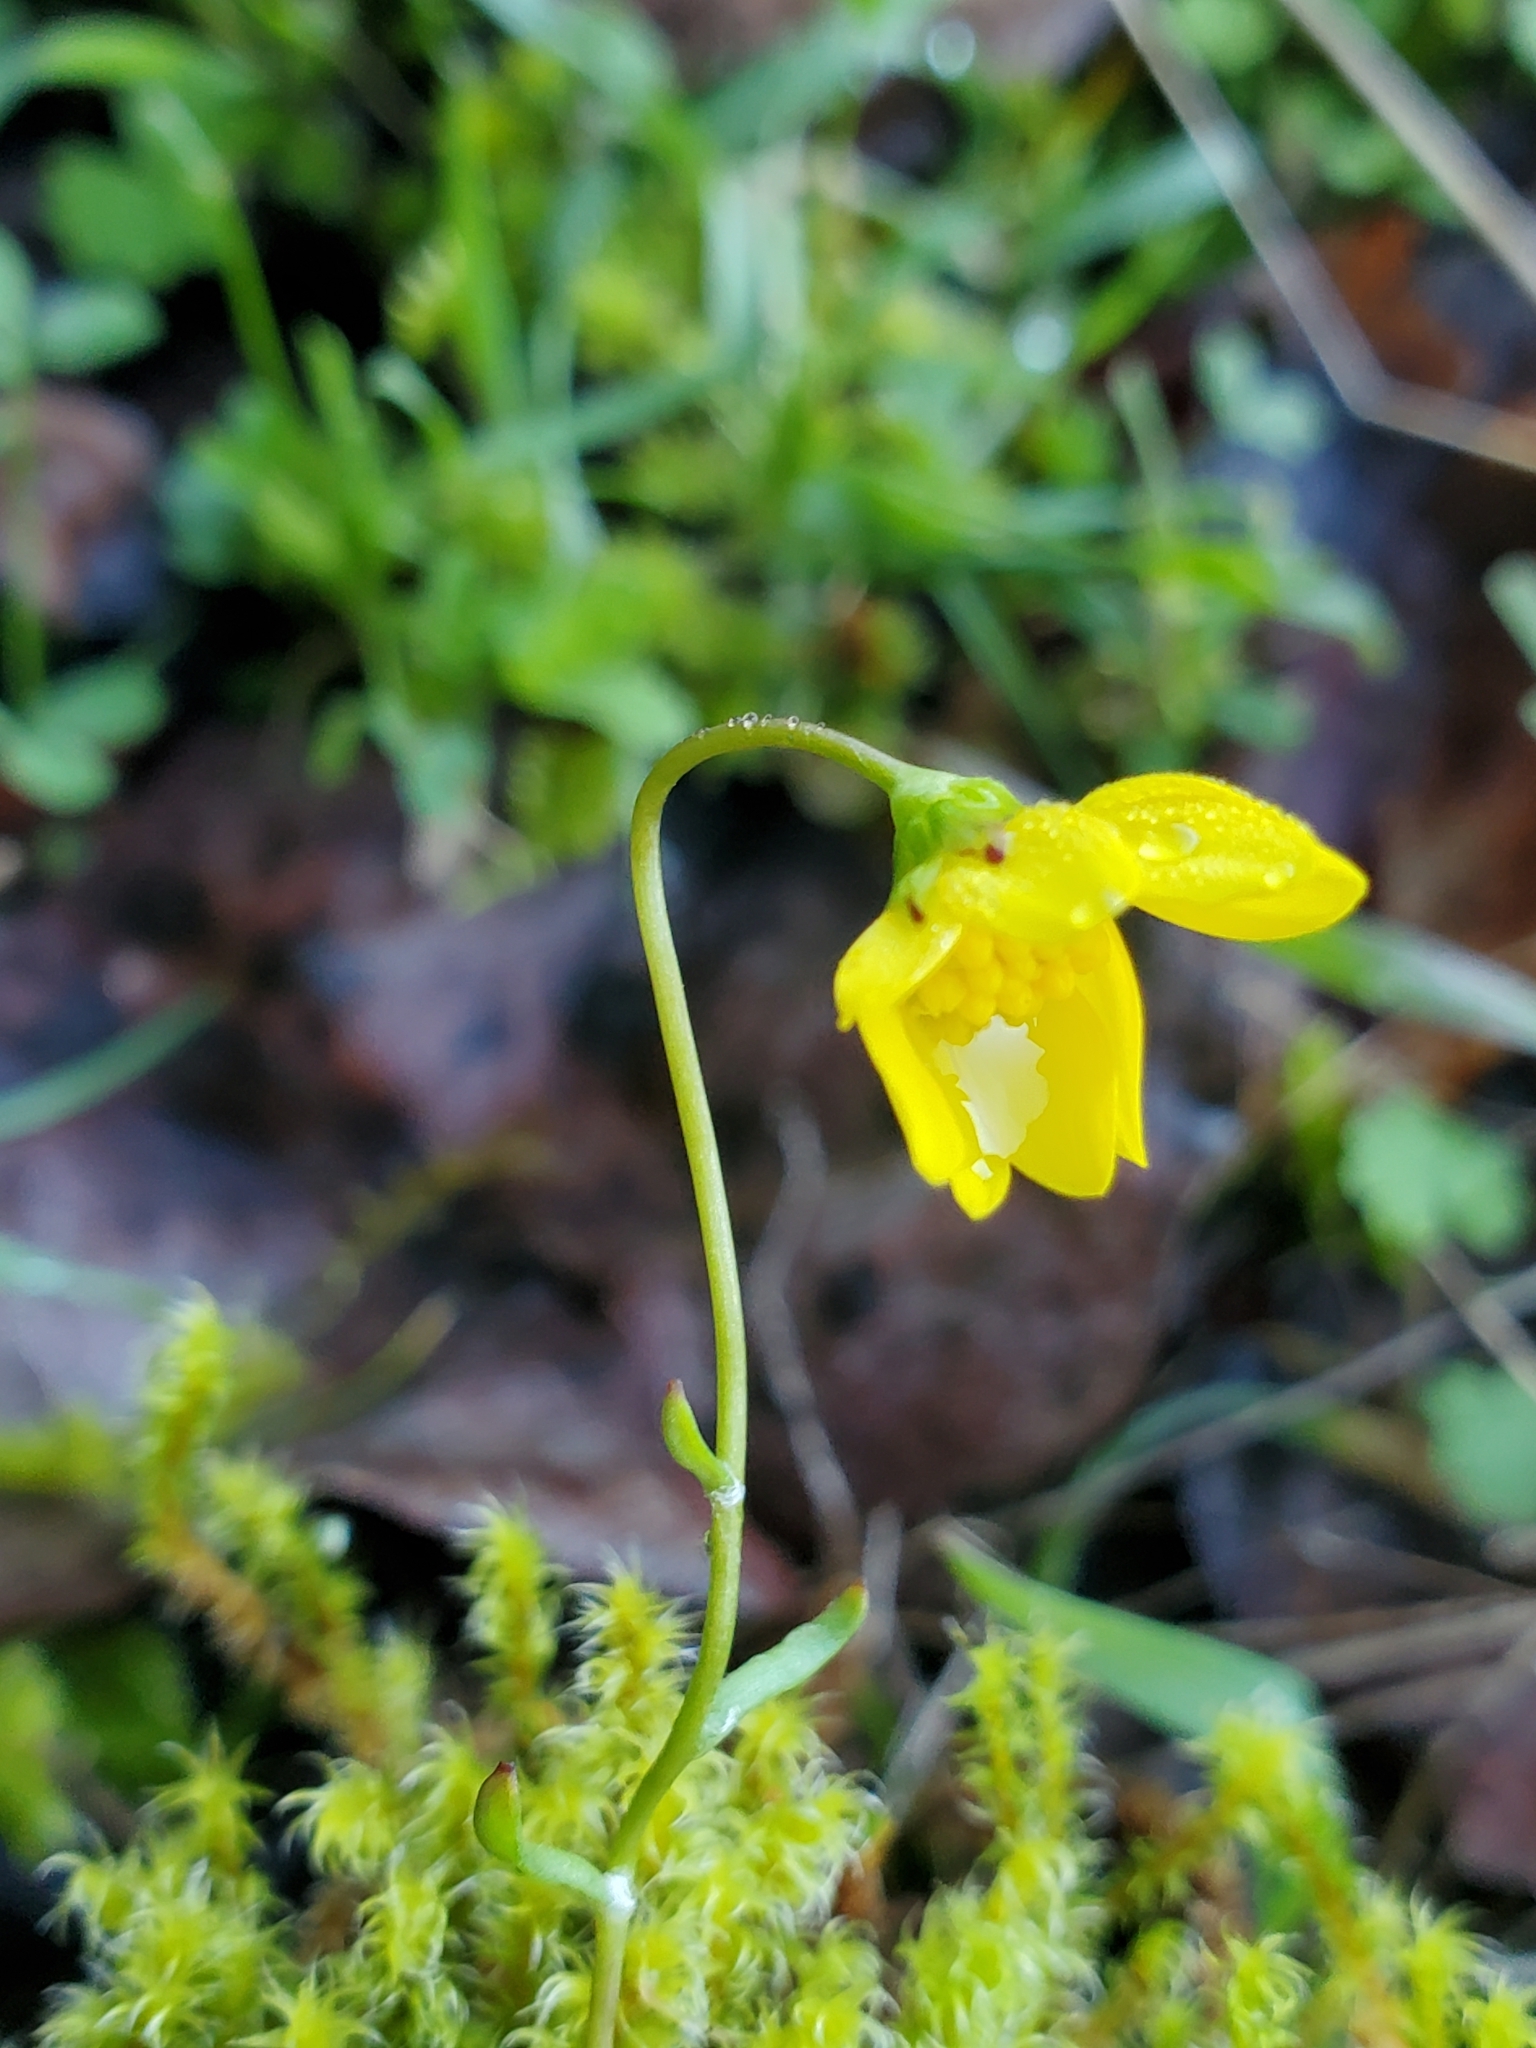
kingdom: Plantae
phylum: Tracheophyta
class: Magnoliopsida
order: Asterales
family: Asteraceae
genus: Crocidium
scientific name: Crocidium multicaule
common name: Common spring gold
